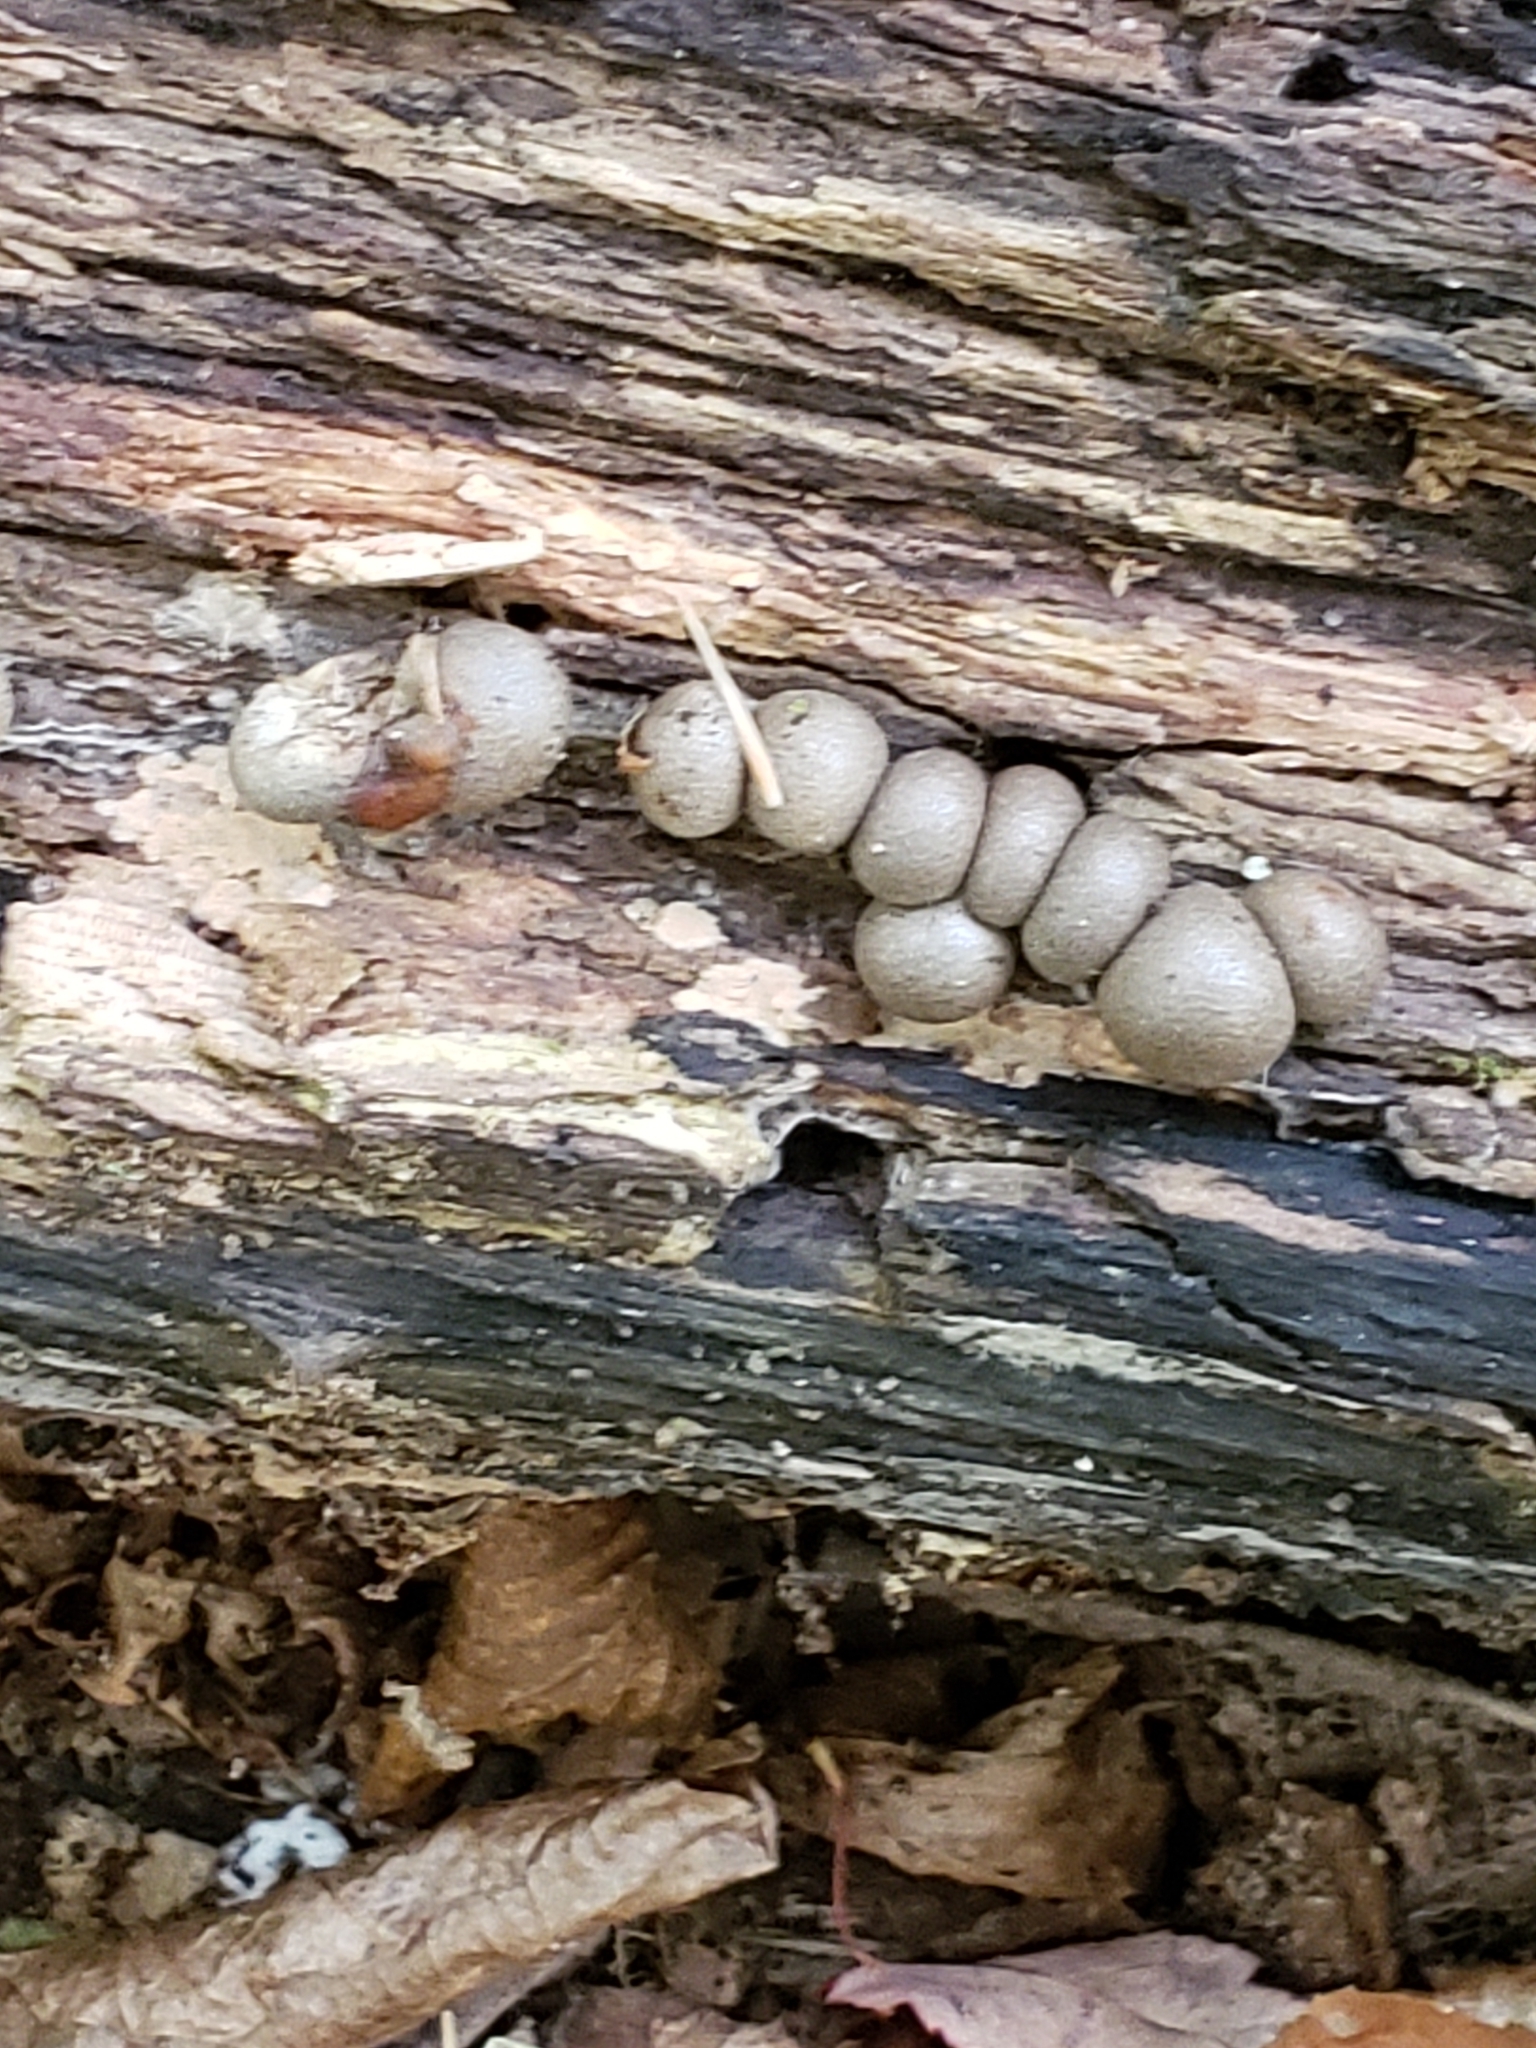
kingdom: Protozoa
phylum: Mycetozoa
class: Myxomycetes
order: Cribrariales
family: Tubiferaceae
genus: Lycogala
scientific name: Lycogala epidendrum
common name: Wolf's milk
